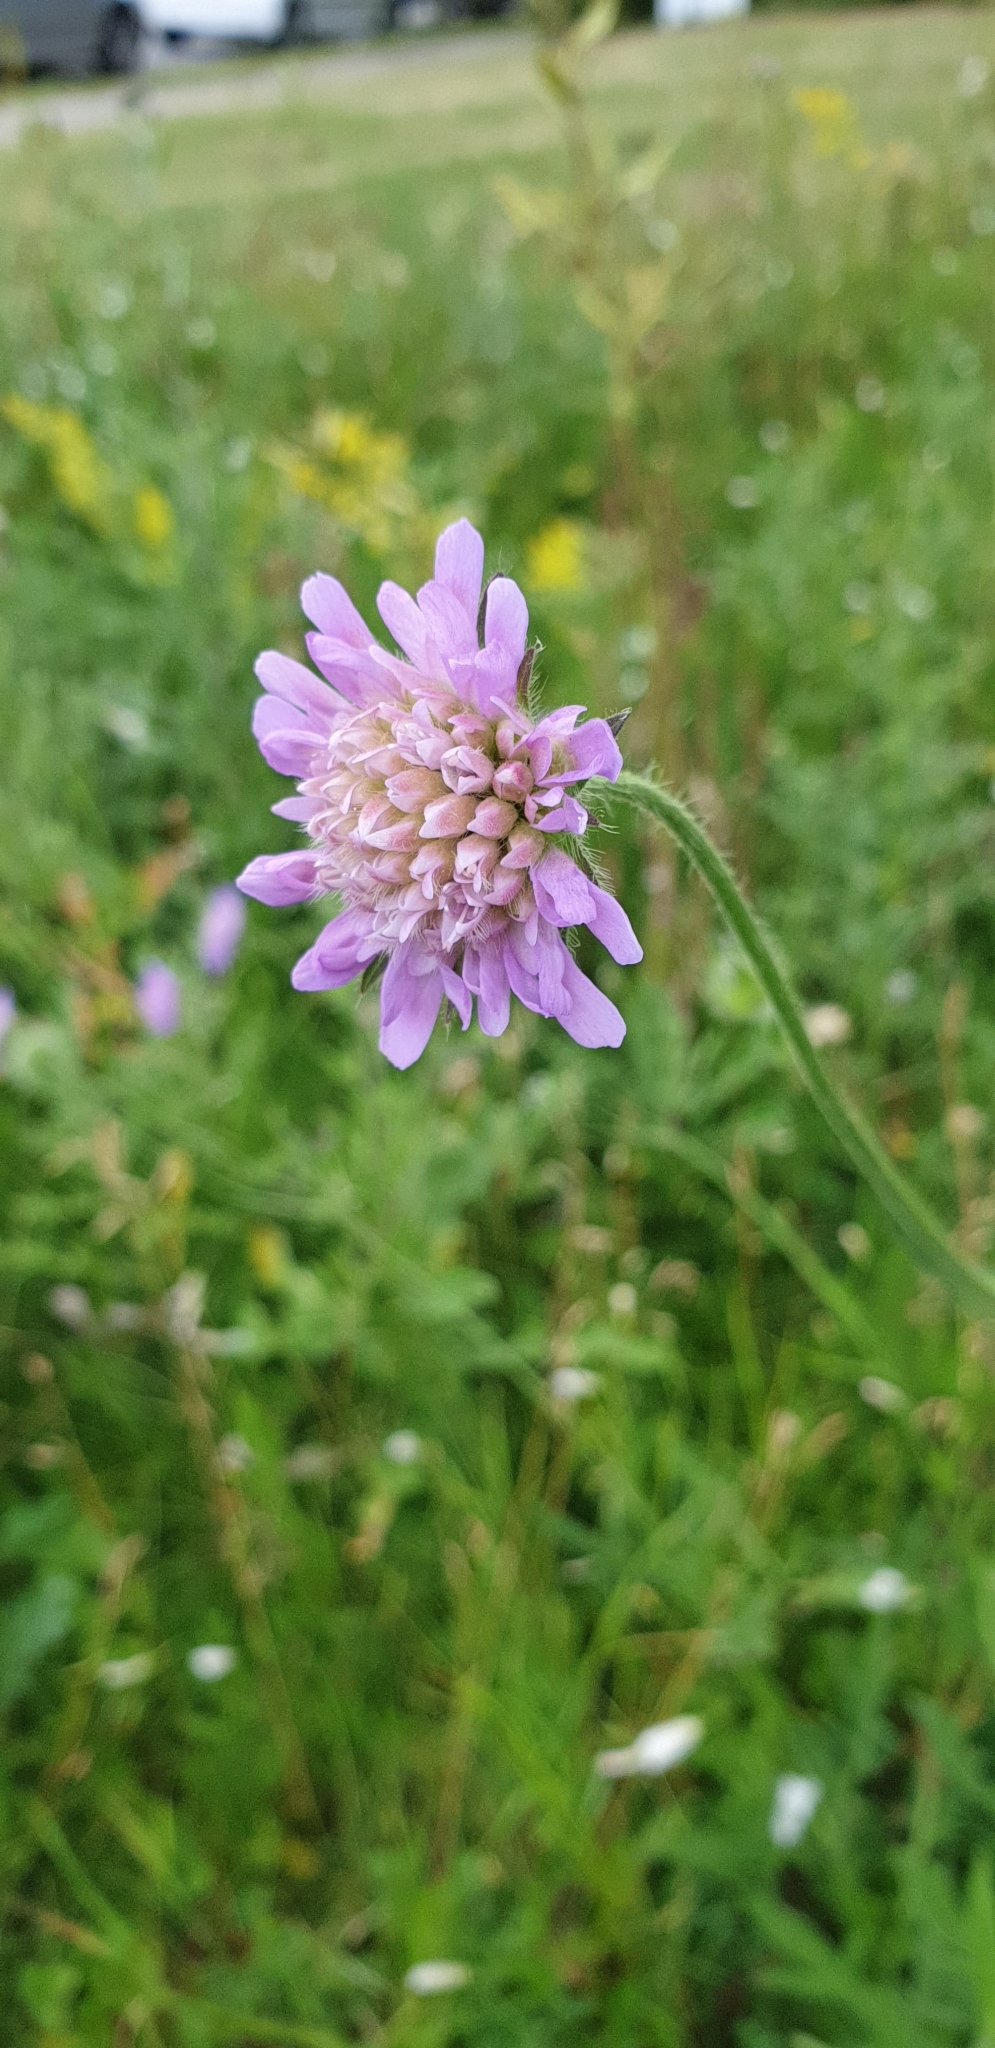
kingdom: Plantae
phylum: Tracheophyta
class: Magnoliopsida
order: Dipsacales
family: Caprifoliaceae
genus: Knautia
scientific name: Knautia arvensis
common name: Field scabiosa
